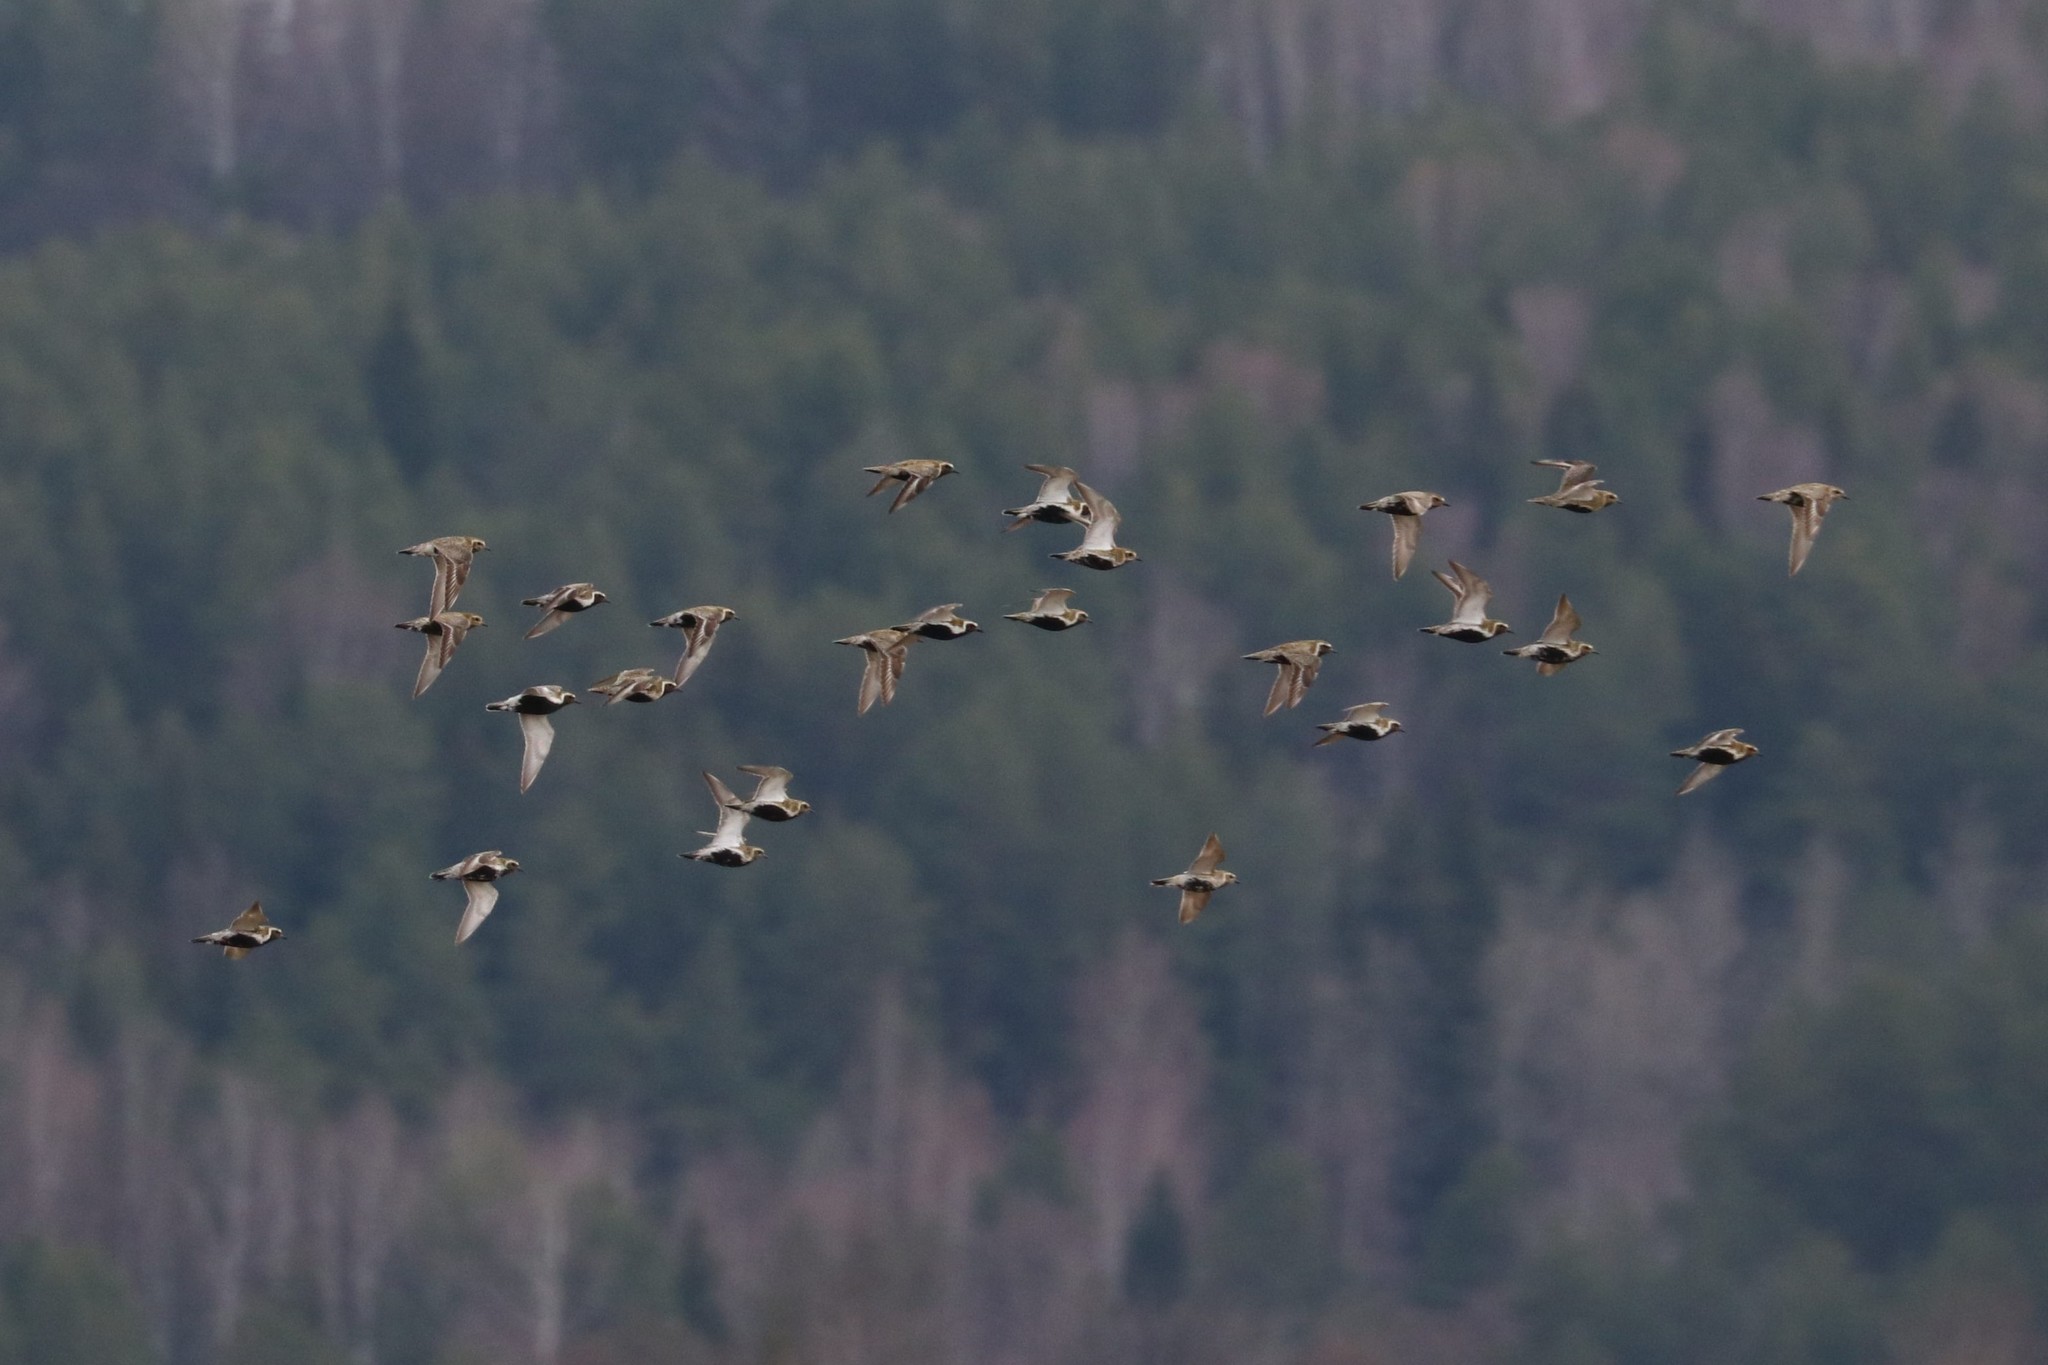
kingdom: Animalia
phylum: Chordata
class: Aves
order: Charadriiformes
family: Charadriidae
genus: Pluvialis
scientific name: Pluvialis apricaria
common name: European golden plover
